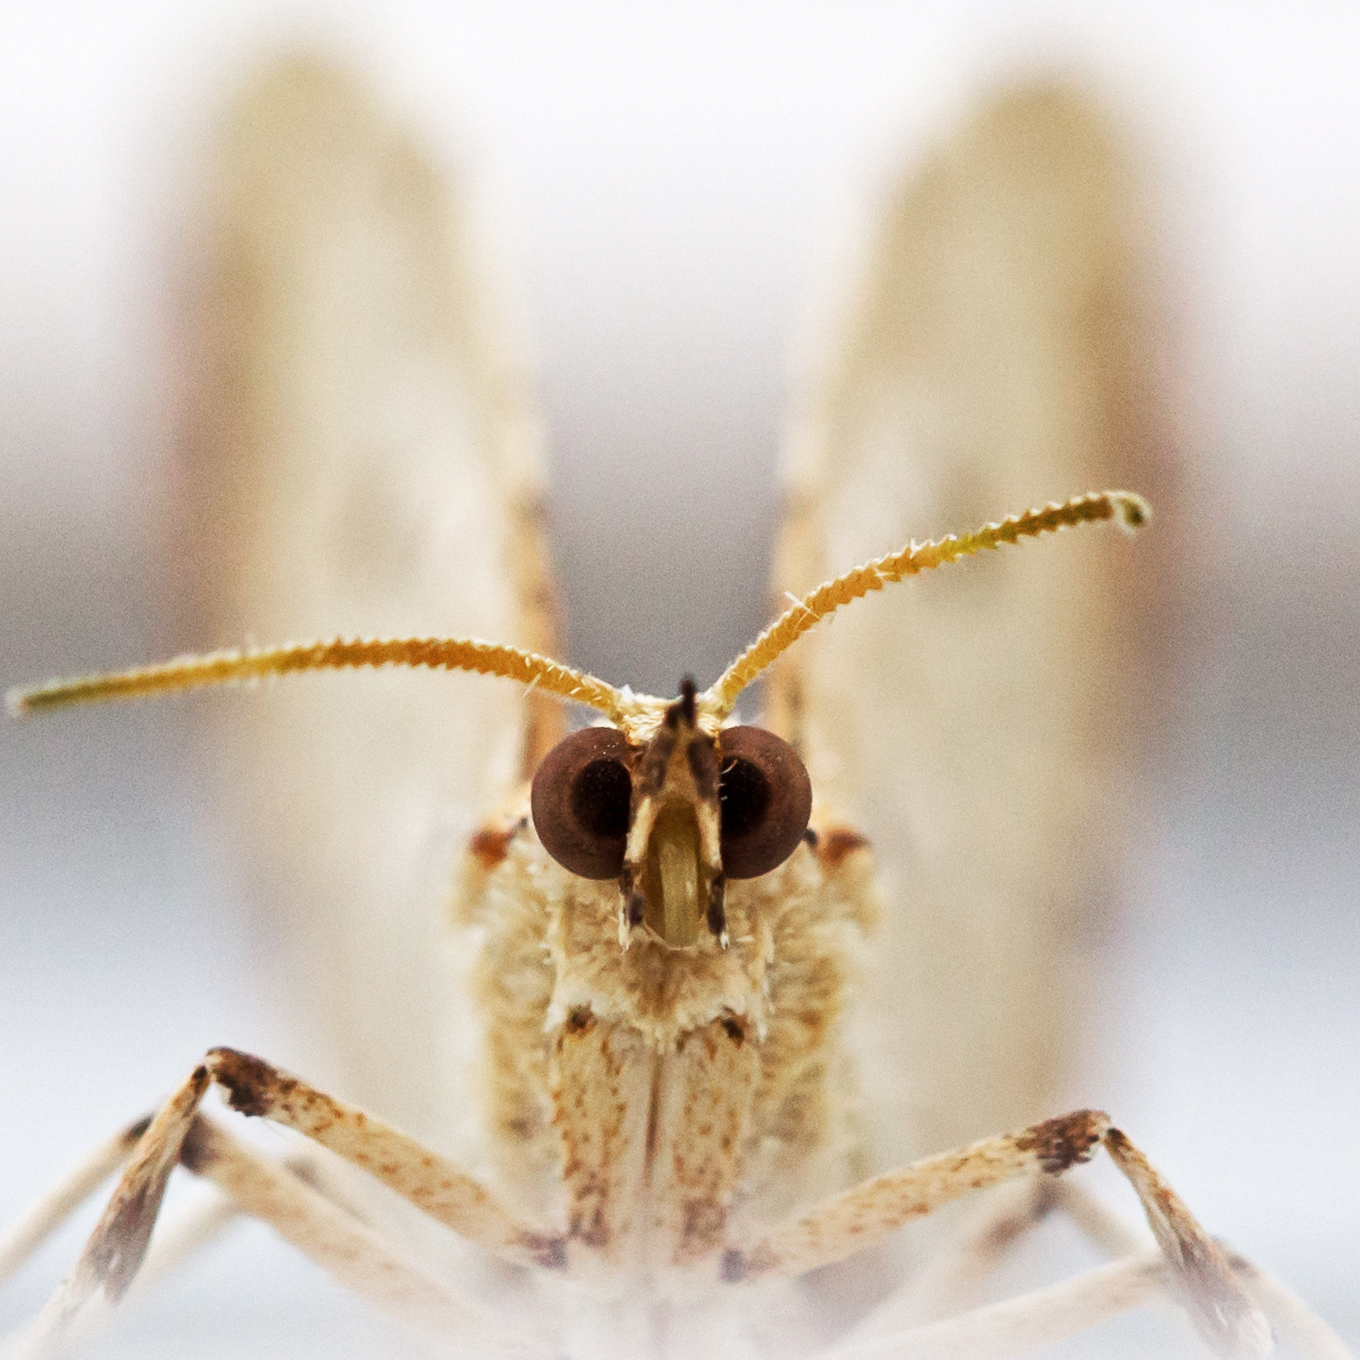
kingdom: Animalia
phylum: Arthropoda
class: Insecta
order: Lepidoptera
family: Geometridae
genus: Eulithis
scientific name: Eulithis
